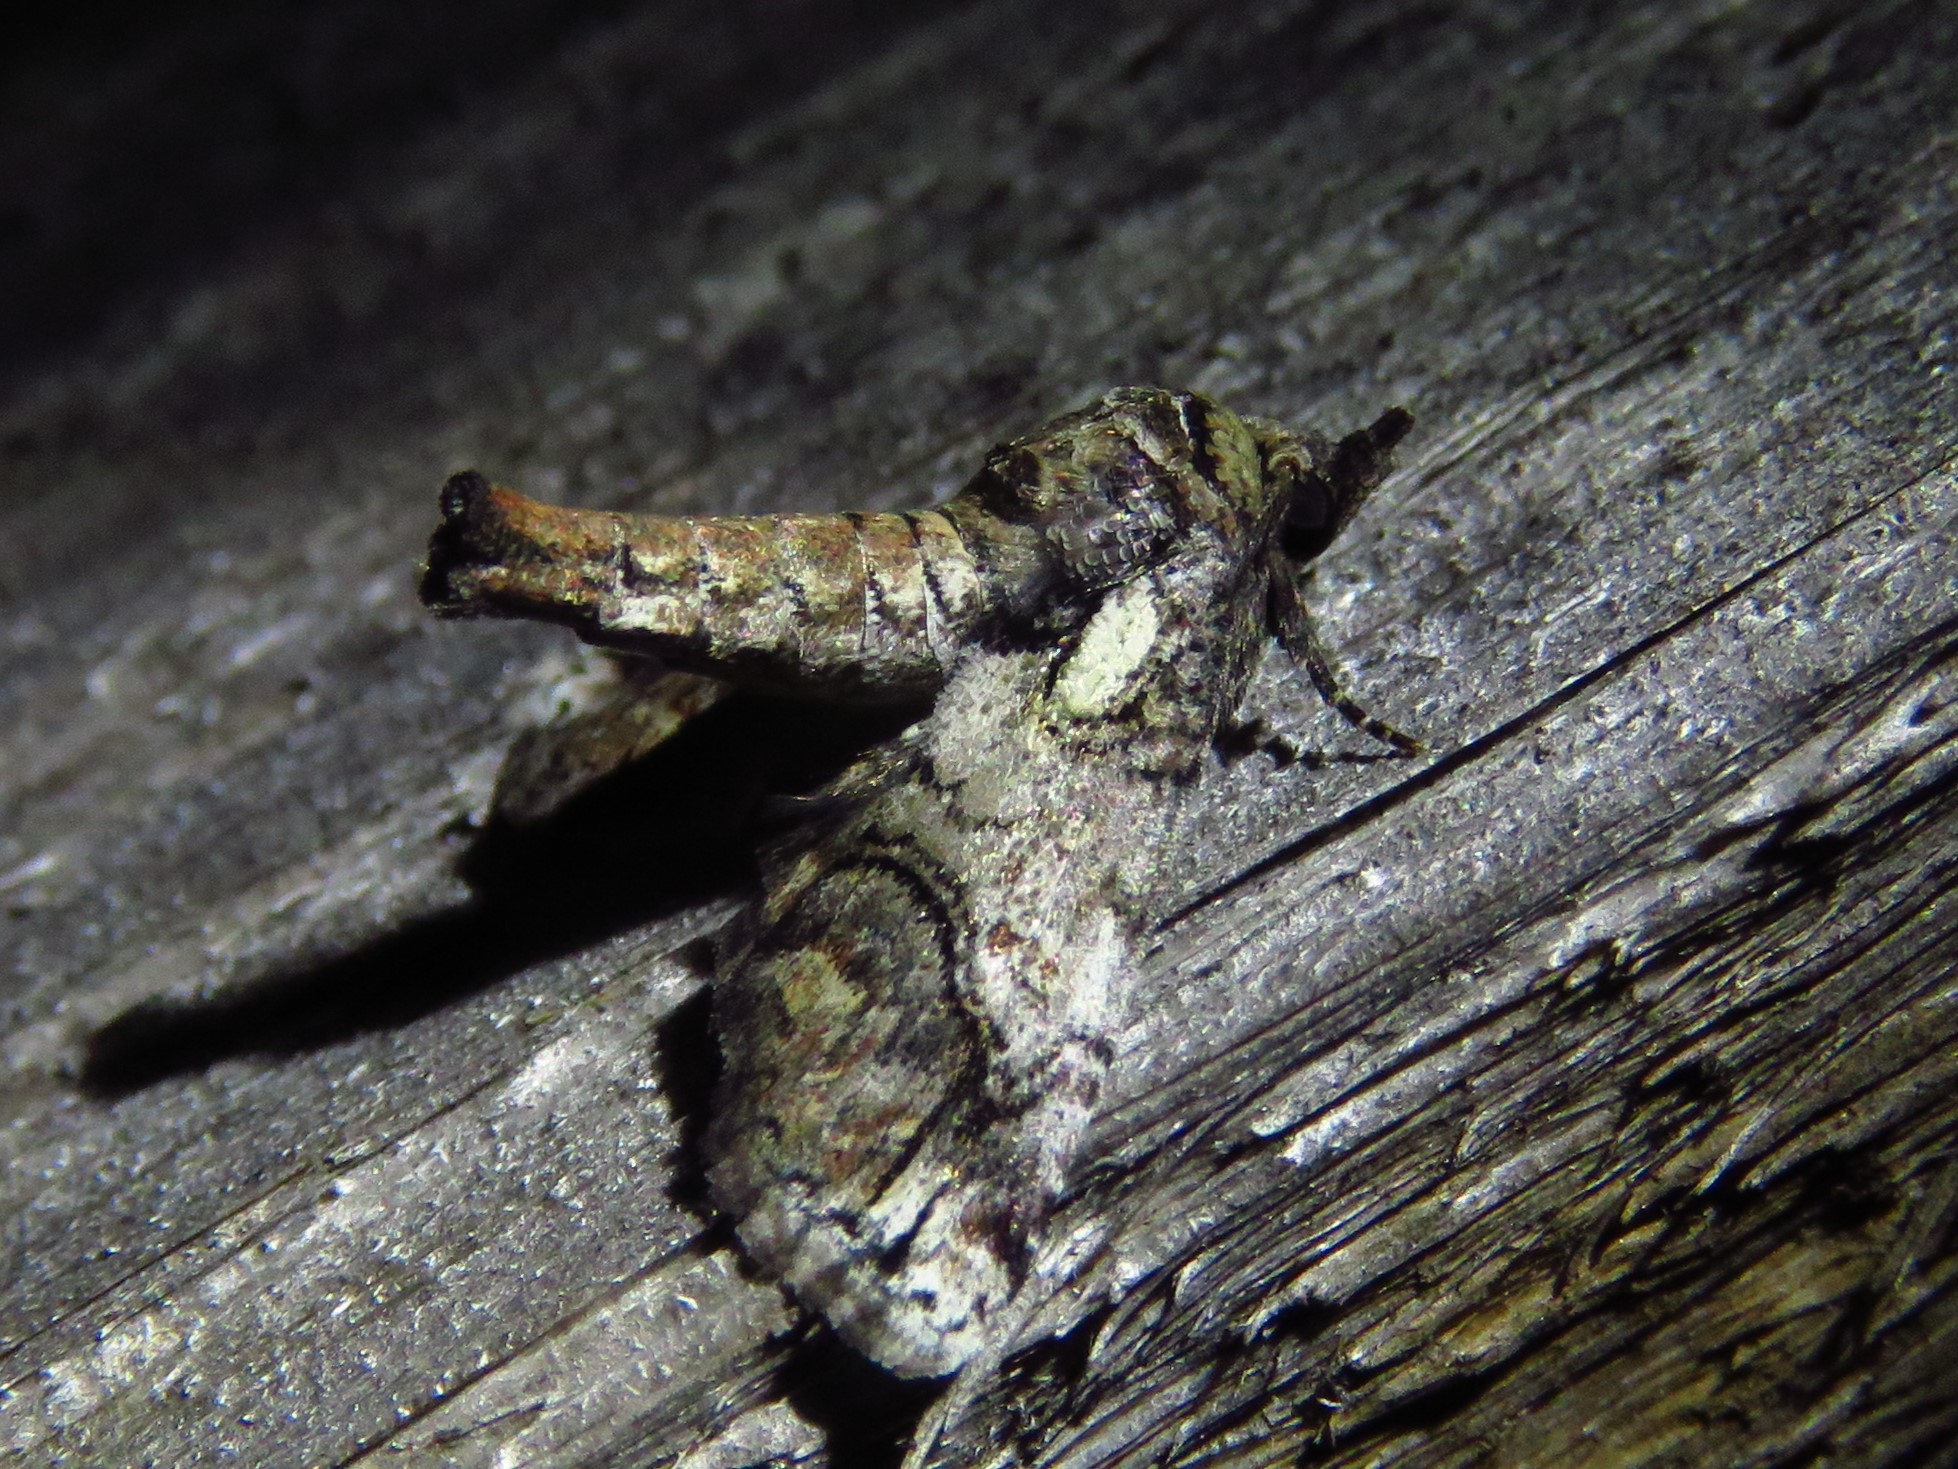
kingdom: Animalia
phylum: Arthropoda
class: Insecta
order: Lepidoptera
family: Euteliidae
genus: Paectes
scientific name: Paectes abrostoloides
